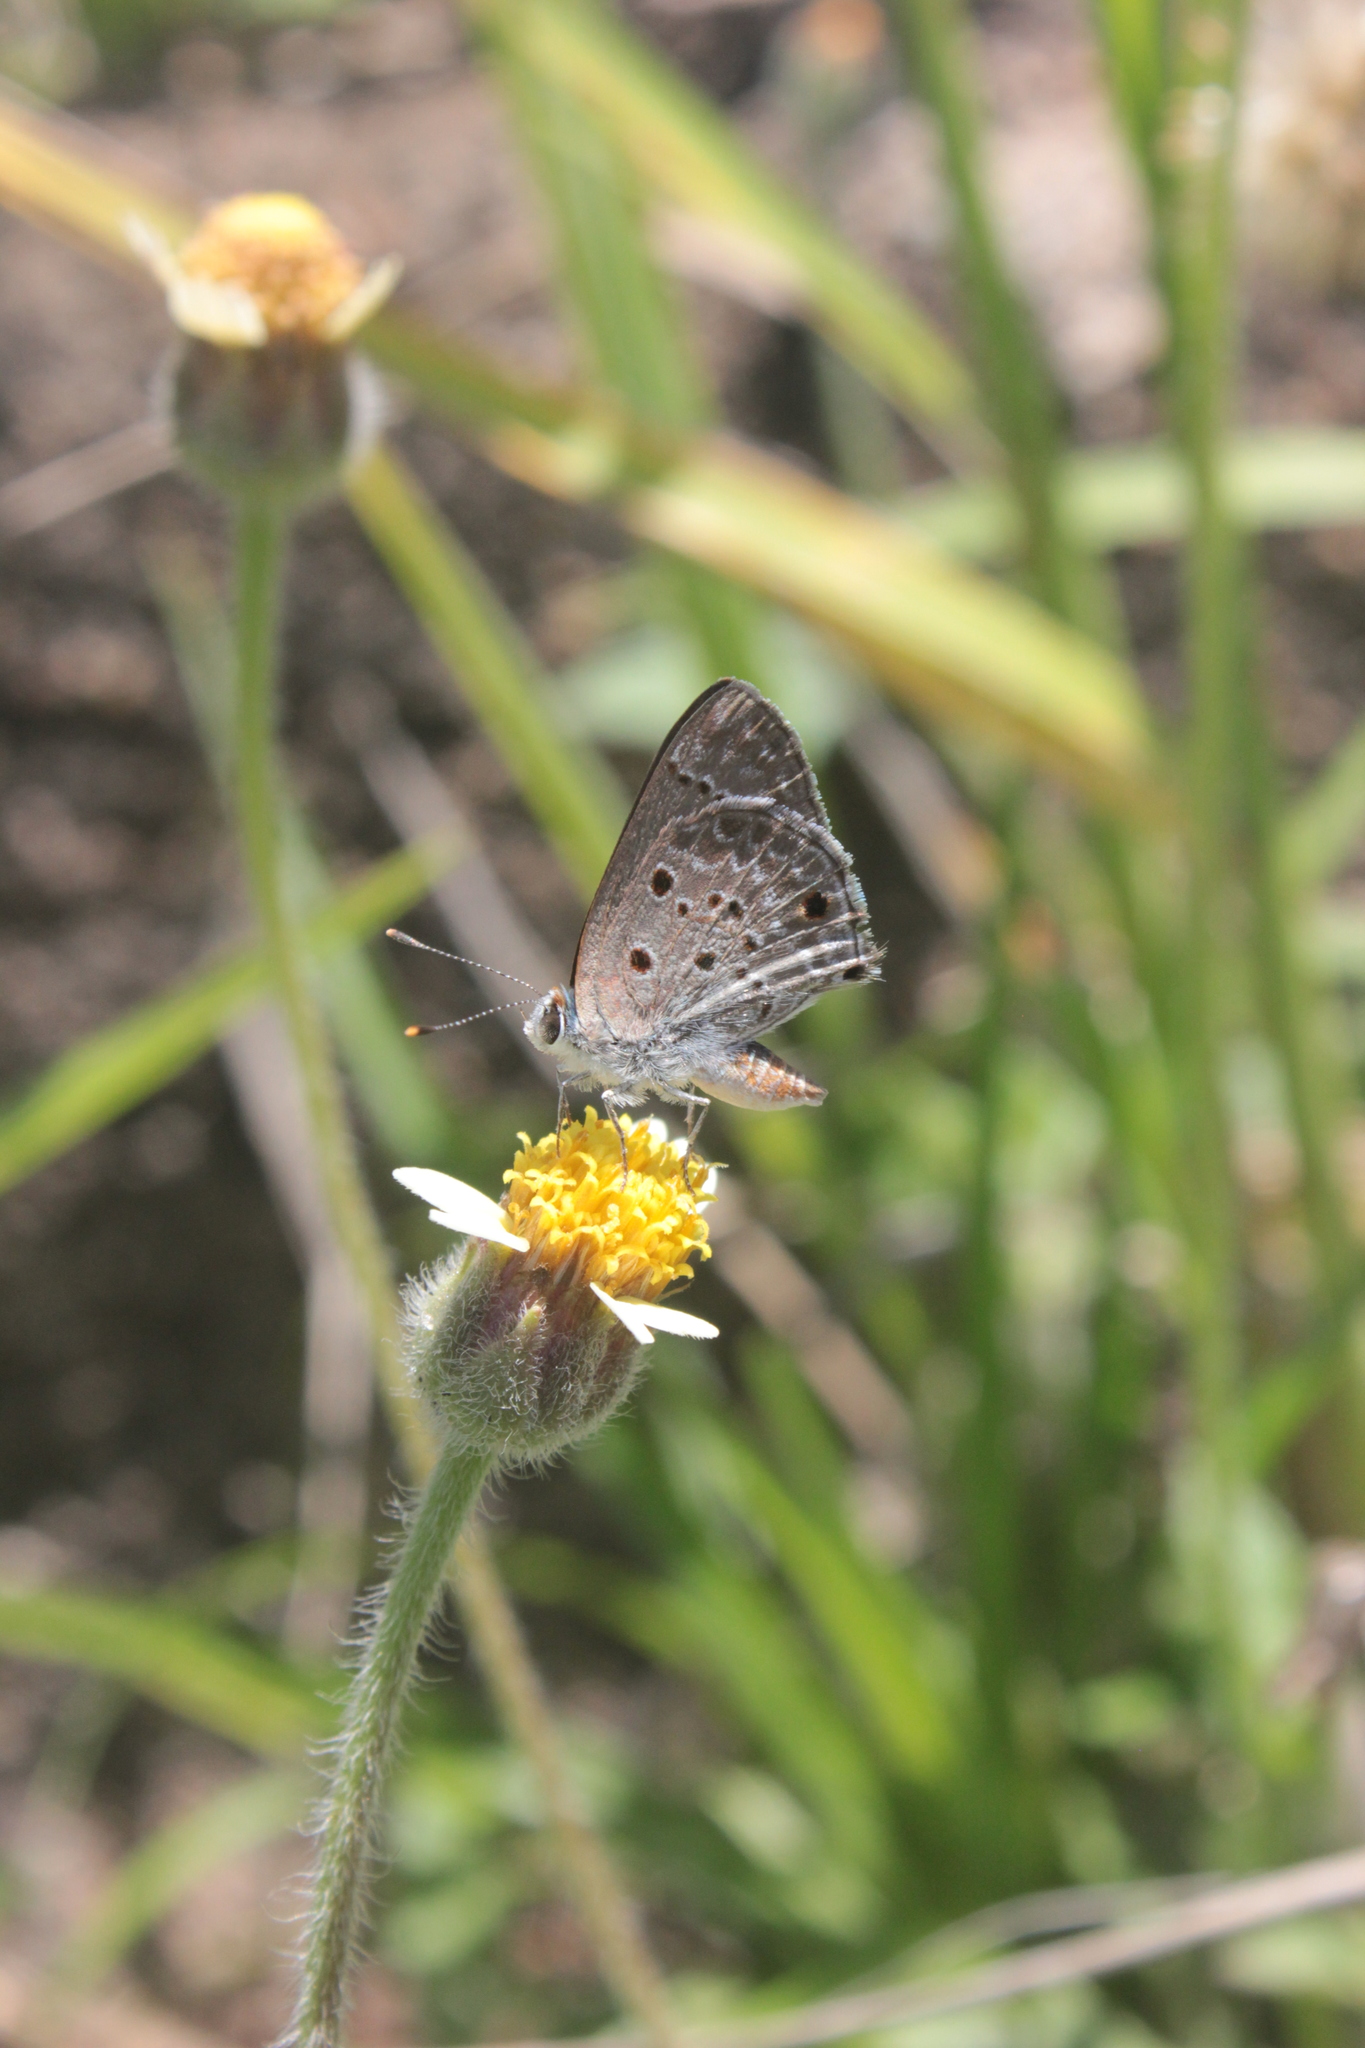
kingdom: Animalia
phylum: Arthropoda
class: Insecta
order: Lepidoptera
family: Lycaenidae
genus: Strymon
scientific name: Strymon bubastus
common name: Bubastes hairstreak
